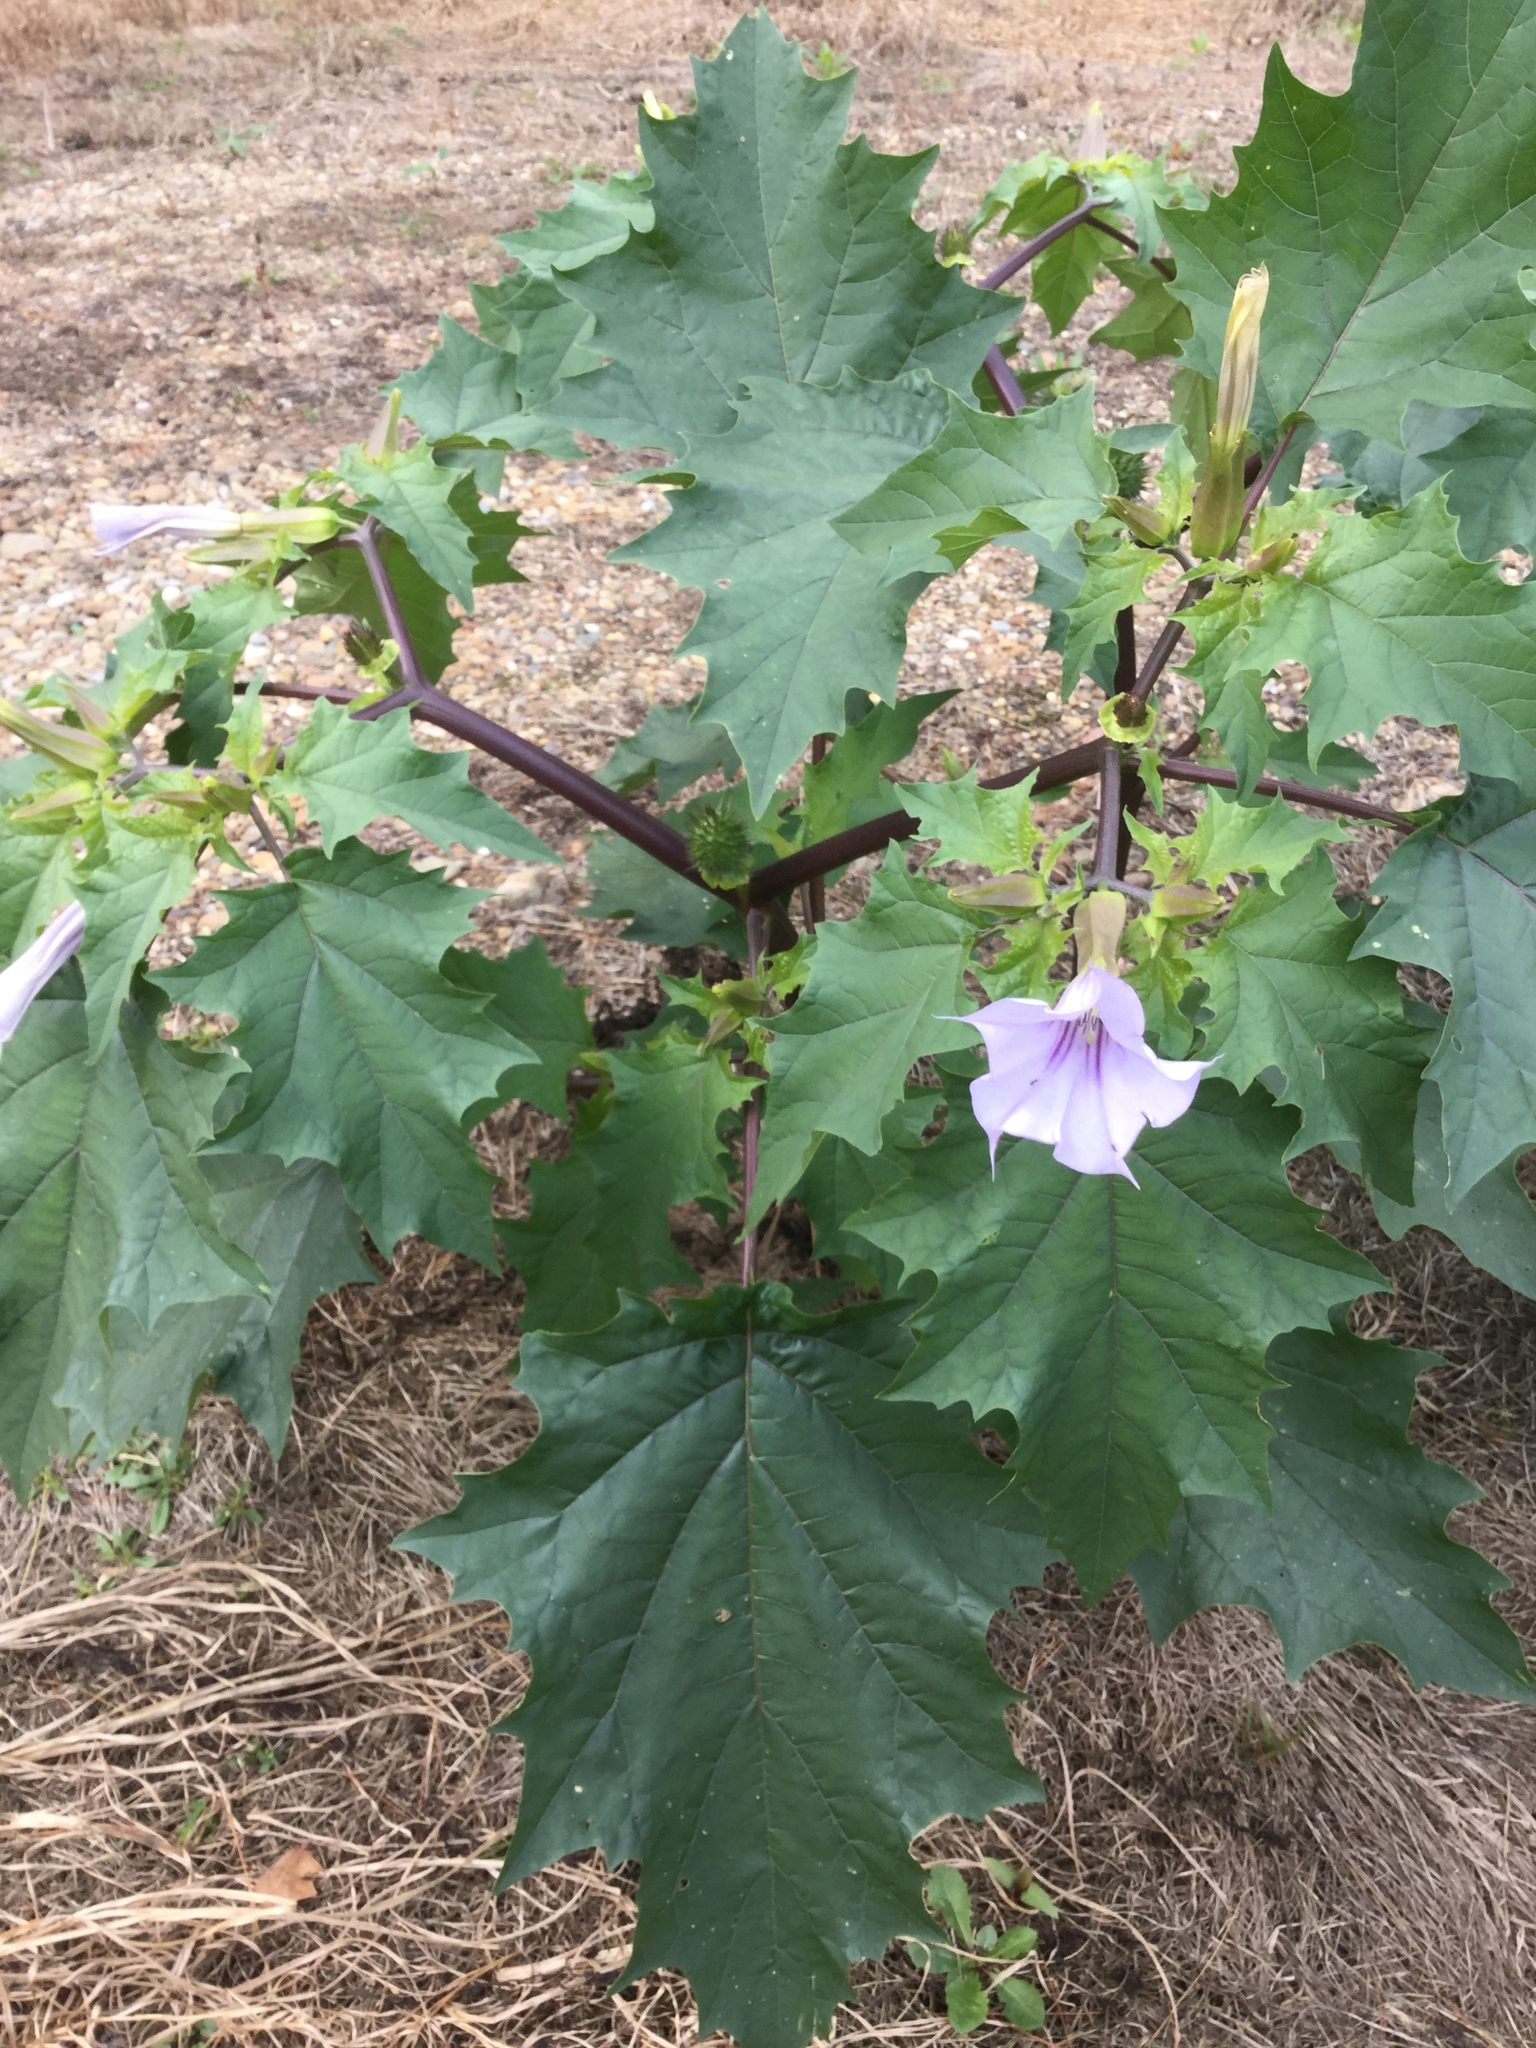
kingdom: Plantae
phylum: Tracheophyta
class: Magnoliopsida
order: Solanales
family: Solanaceae
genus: Datura
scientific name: Datura stramonium
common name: Thorn-apple
